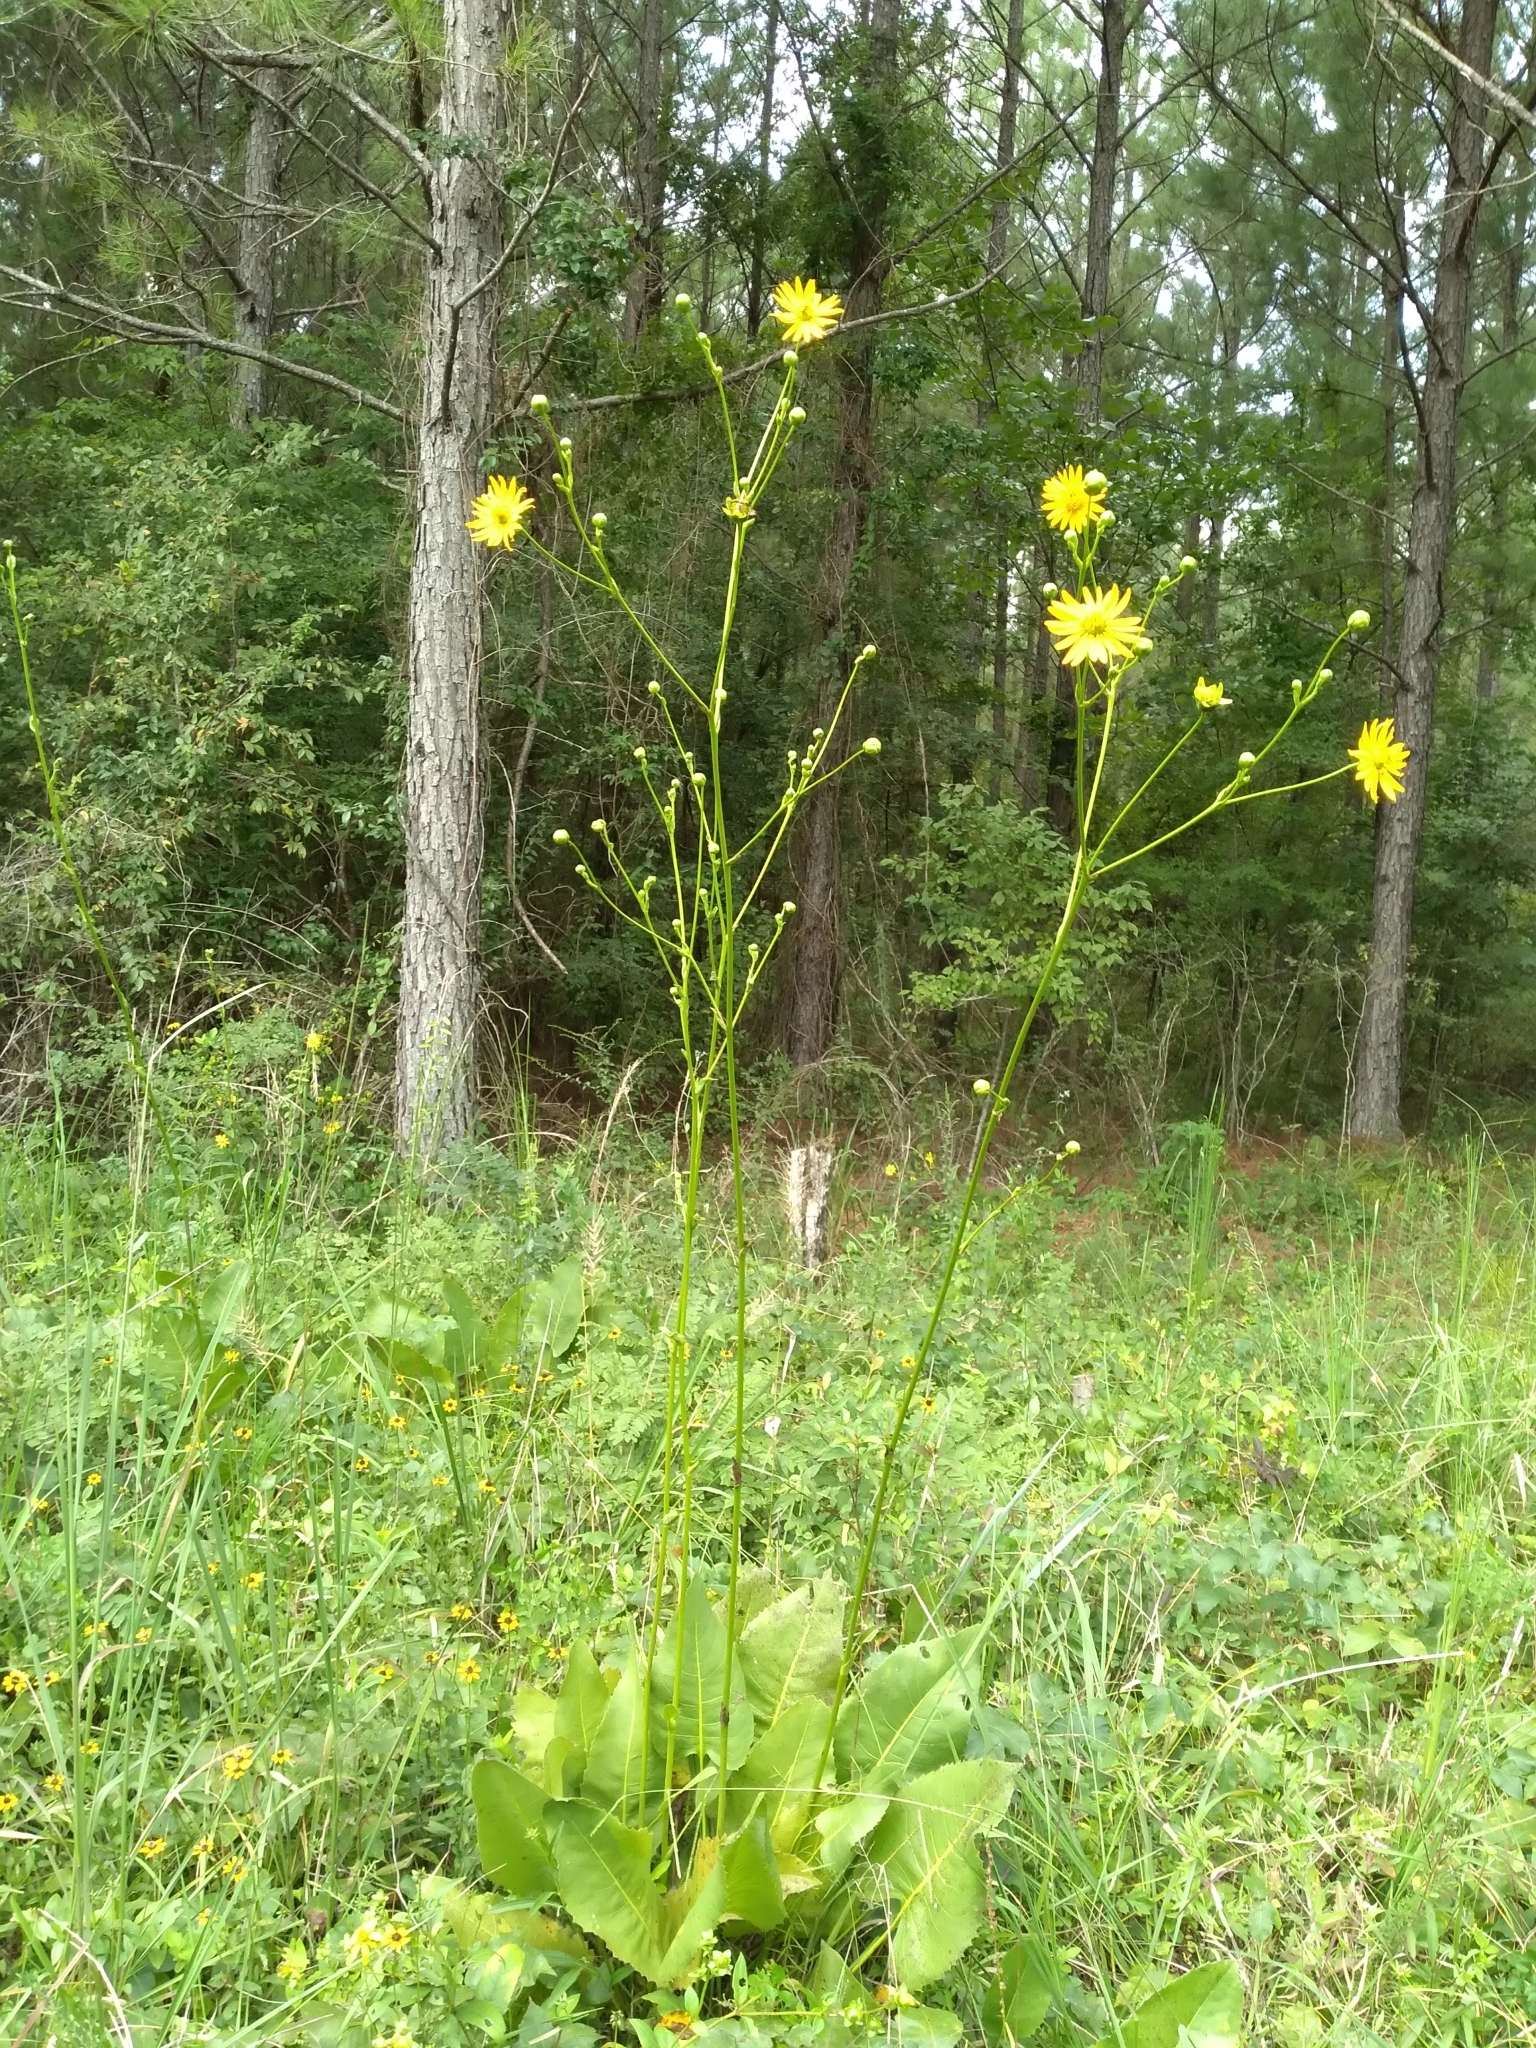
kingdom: Plantae
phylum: Tracheophyta
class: Magnoliopsida
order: Asterales
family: Asteraceae
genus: Silphium
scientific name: Silphium terebinthinaceum
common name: Basal-leaf rosinweed
